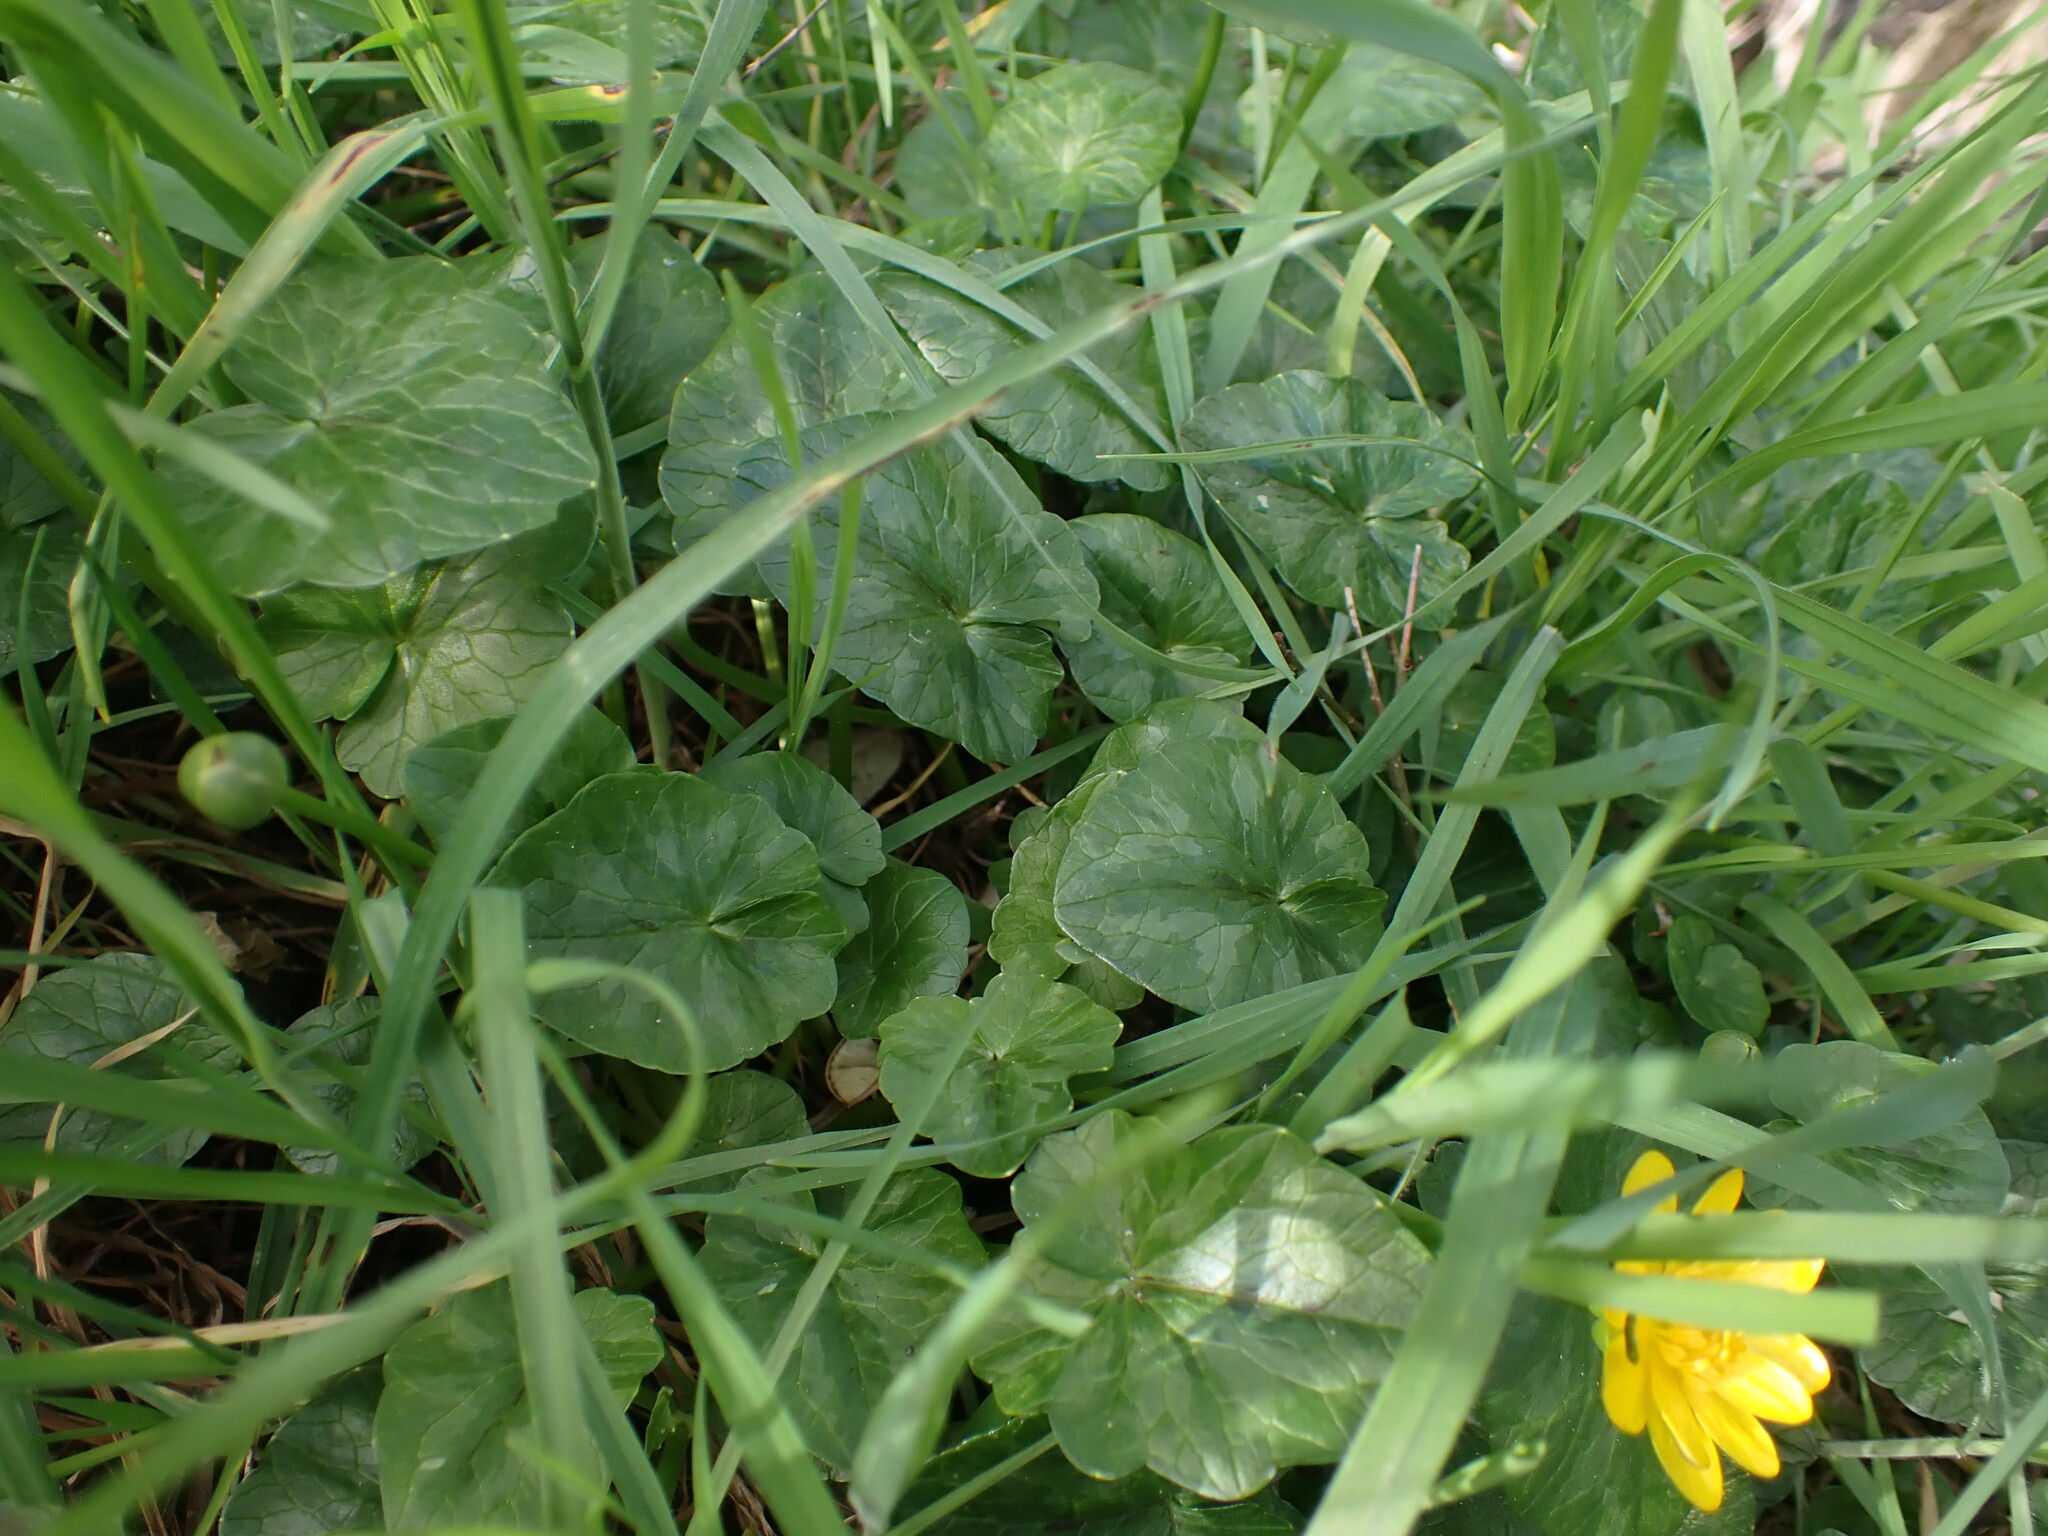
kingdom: Plantae
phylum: Tracheophyta
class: Magnoliopsida
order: Ranunculales
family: Ranunculaceae
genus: Ficaria
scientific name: Ficaria verna
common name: Lesser celandine
